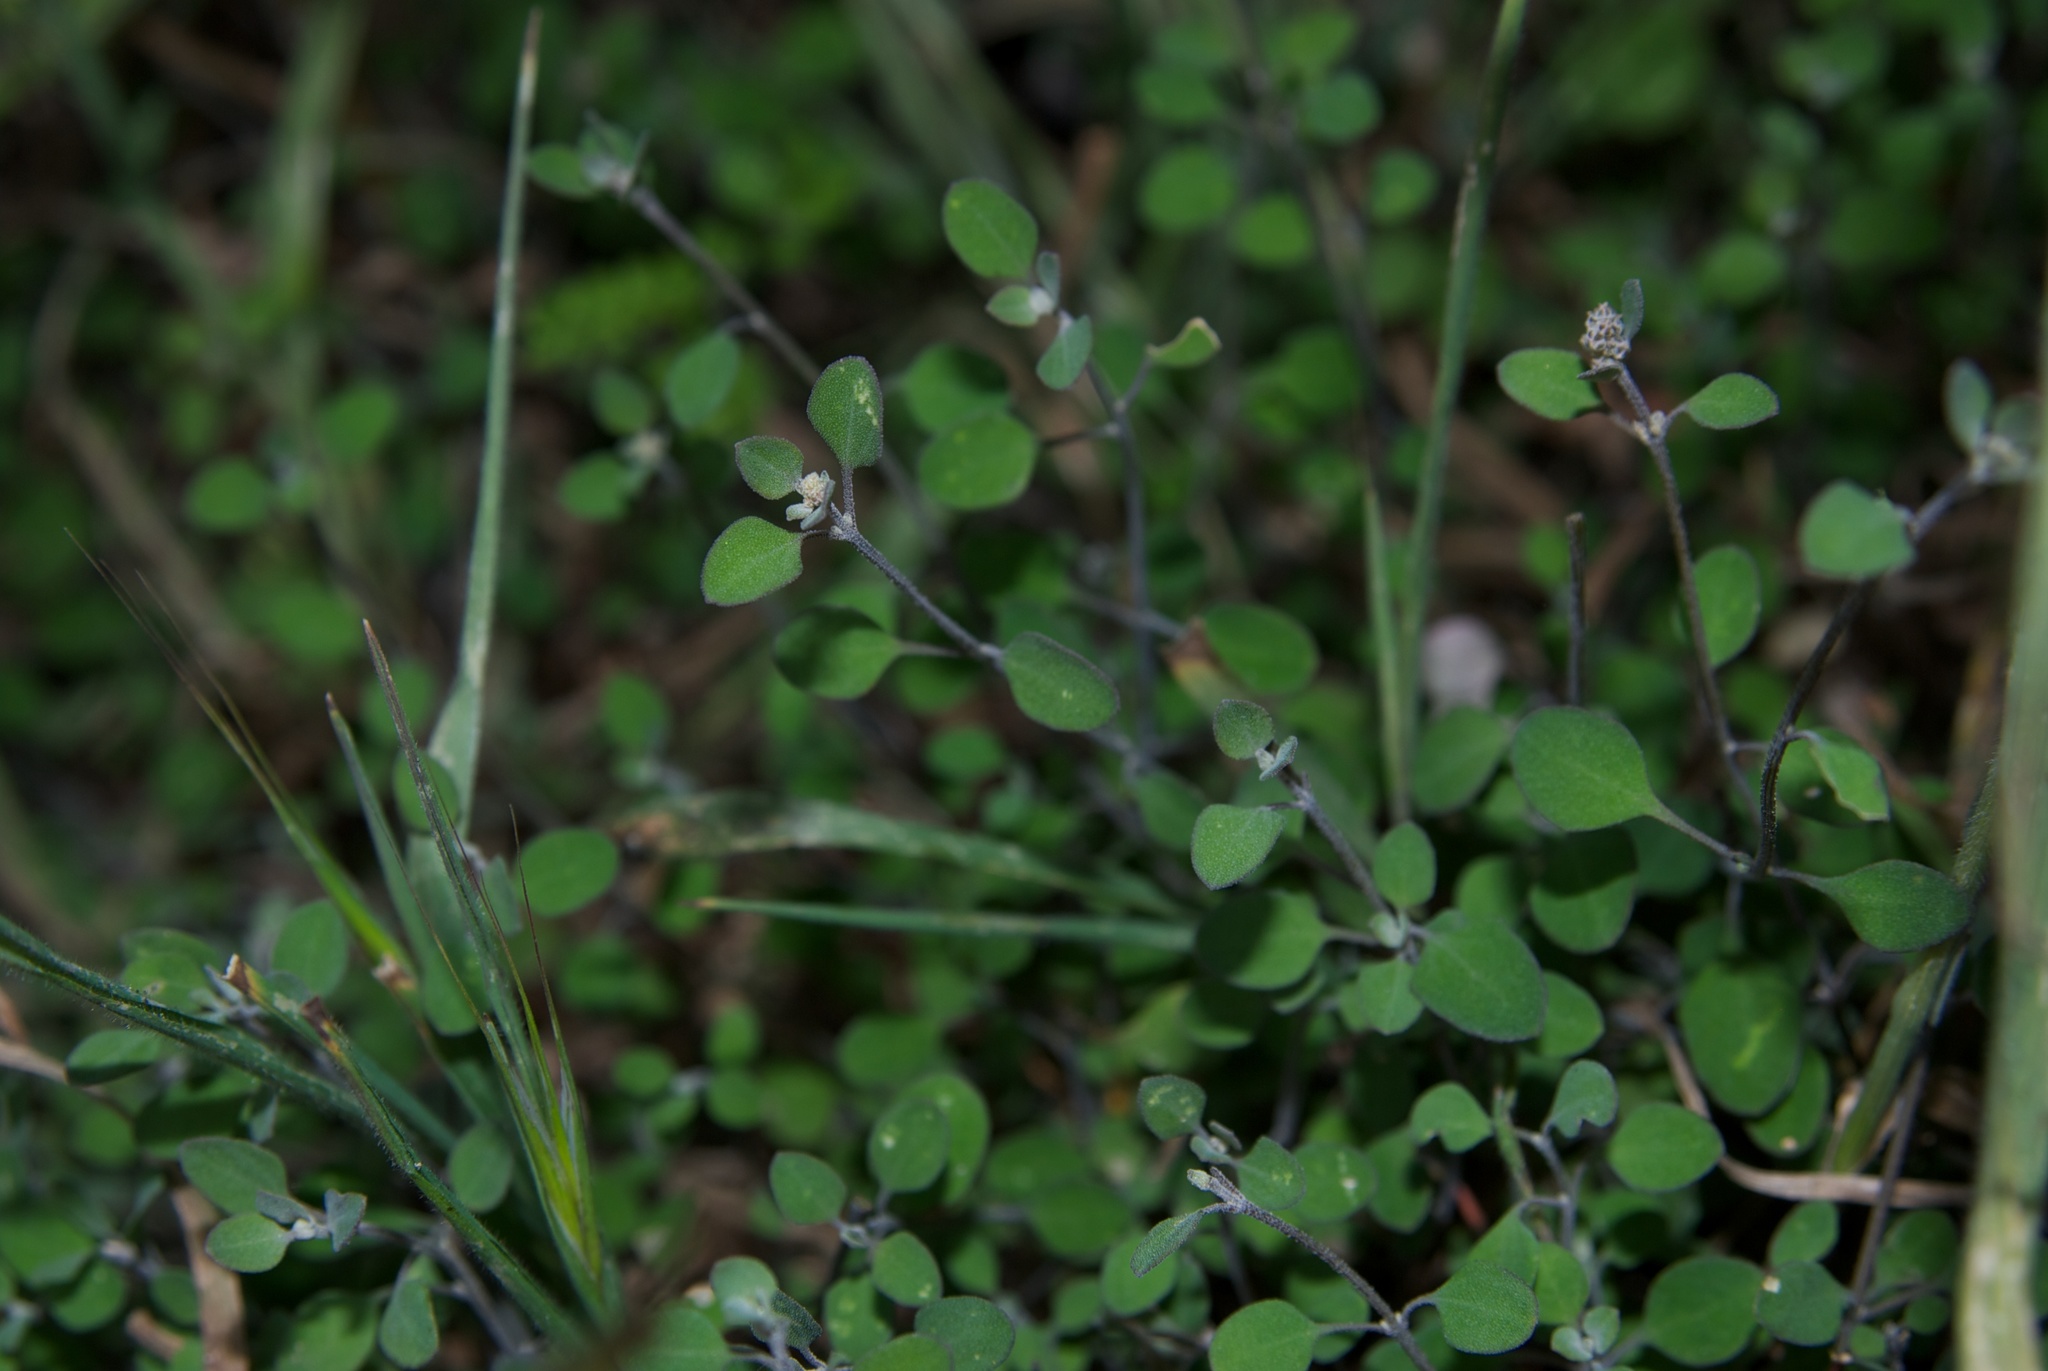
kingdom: Plantae
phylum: Tracheophyta
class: Magnoliopsida
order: Caryophyllales
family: Amaranthaceae
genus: Chenopodium
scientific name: Chenopodium allanii
